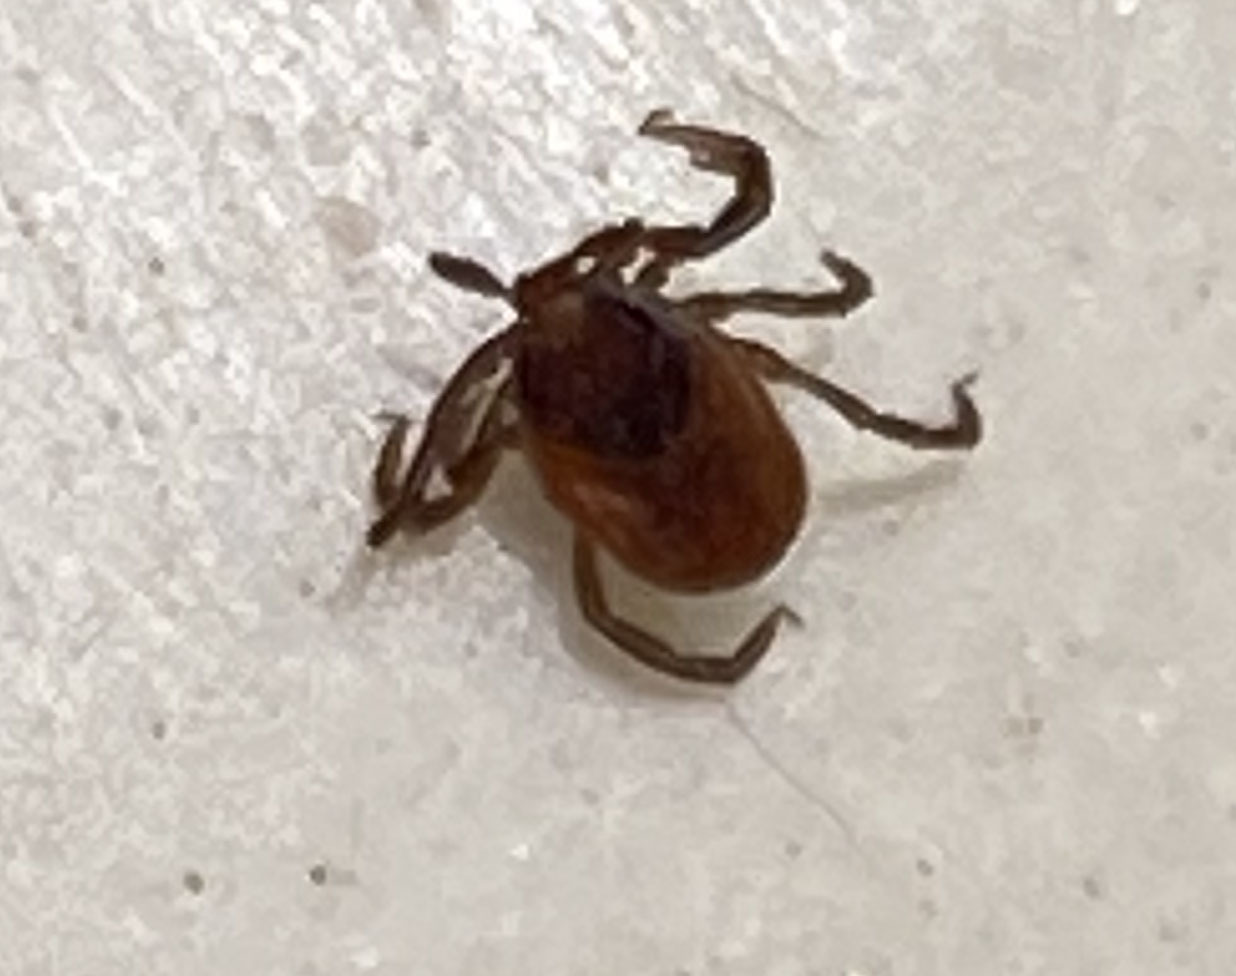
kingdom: Animalia
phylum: Arthropoda
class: Arachnida
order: Ixodida
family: Ixodidae
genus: Ixodes
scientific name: Ixodes pacificus
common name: California black-legged tick
